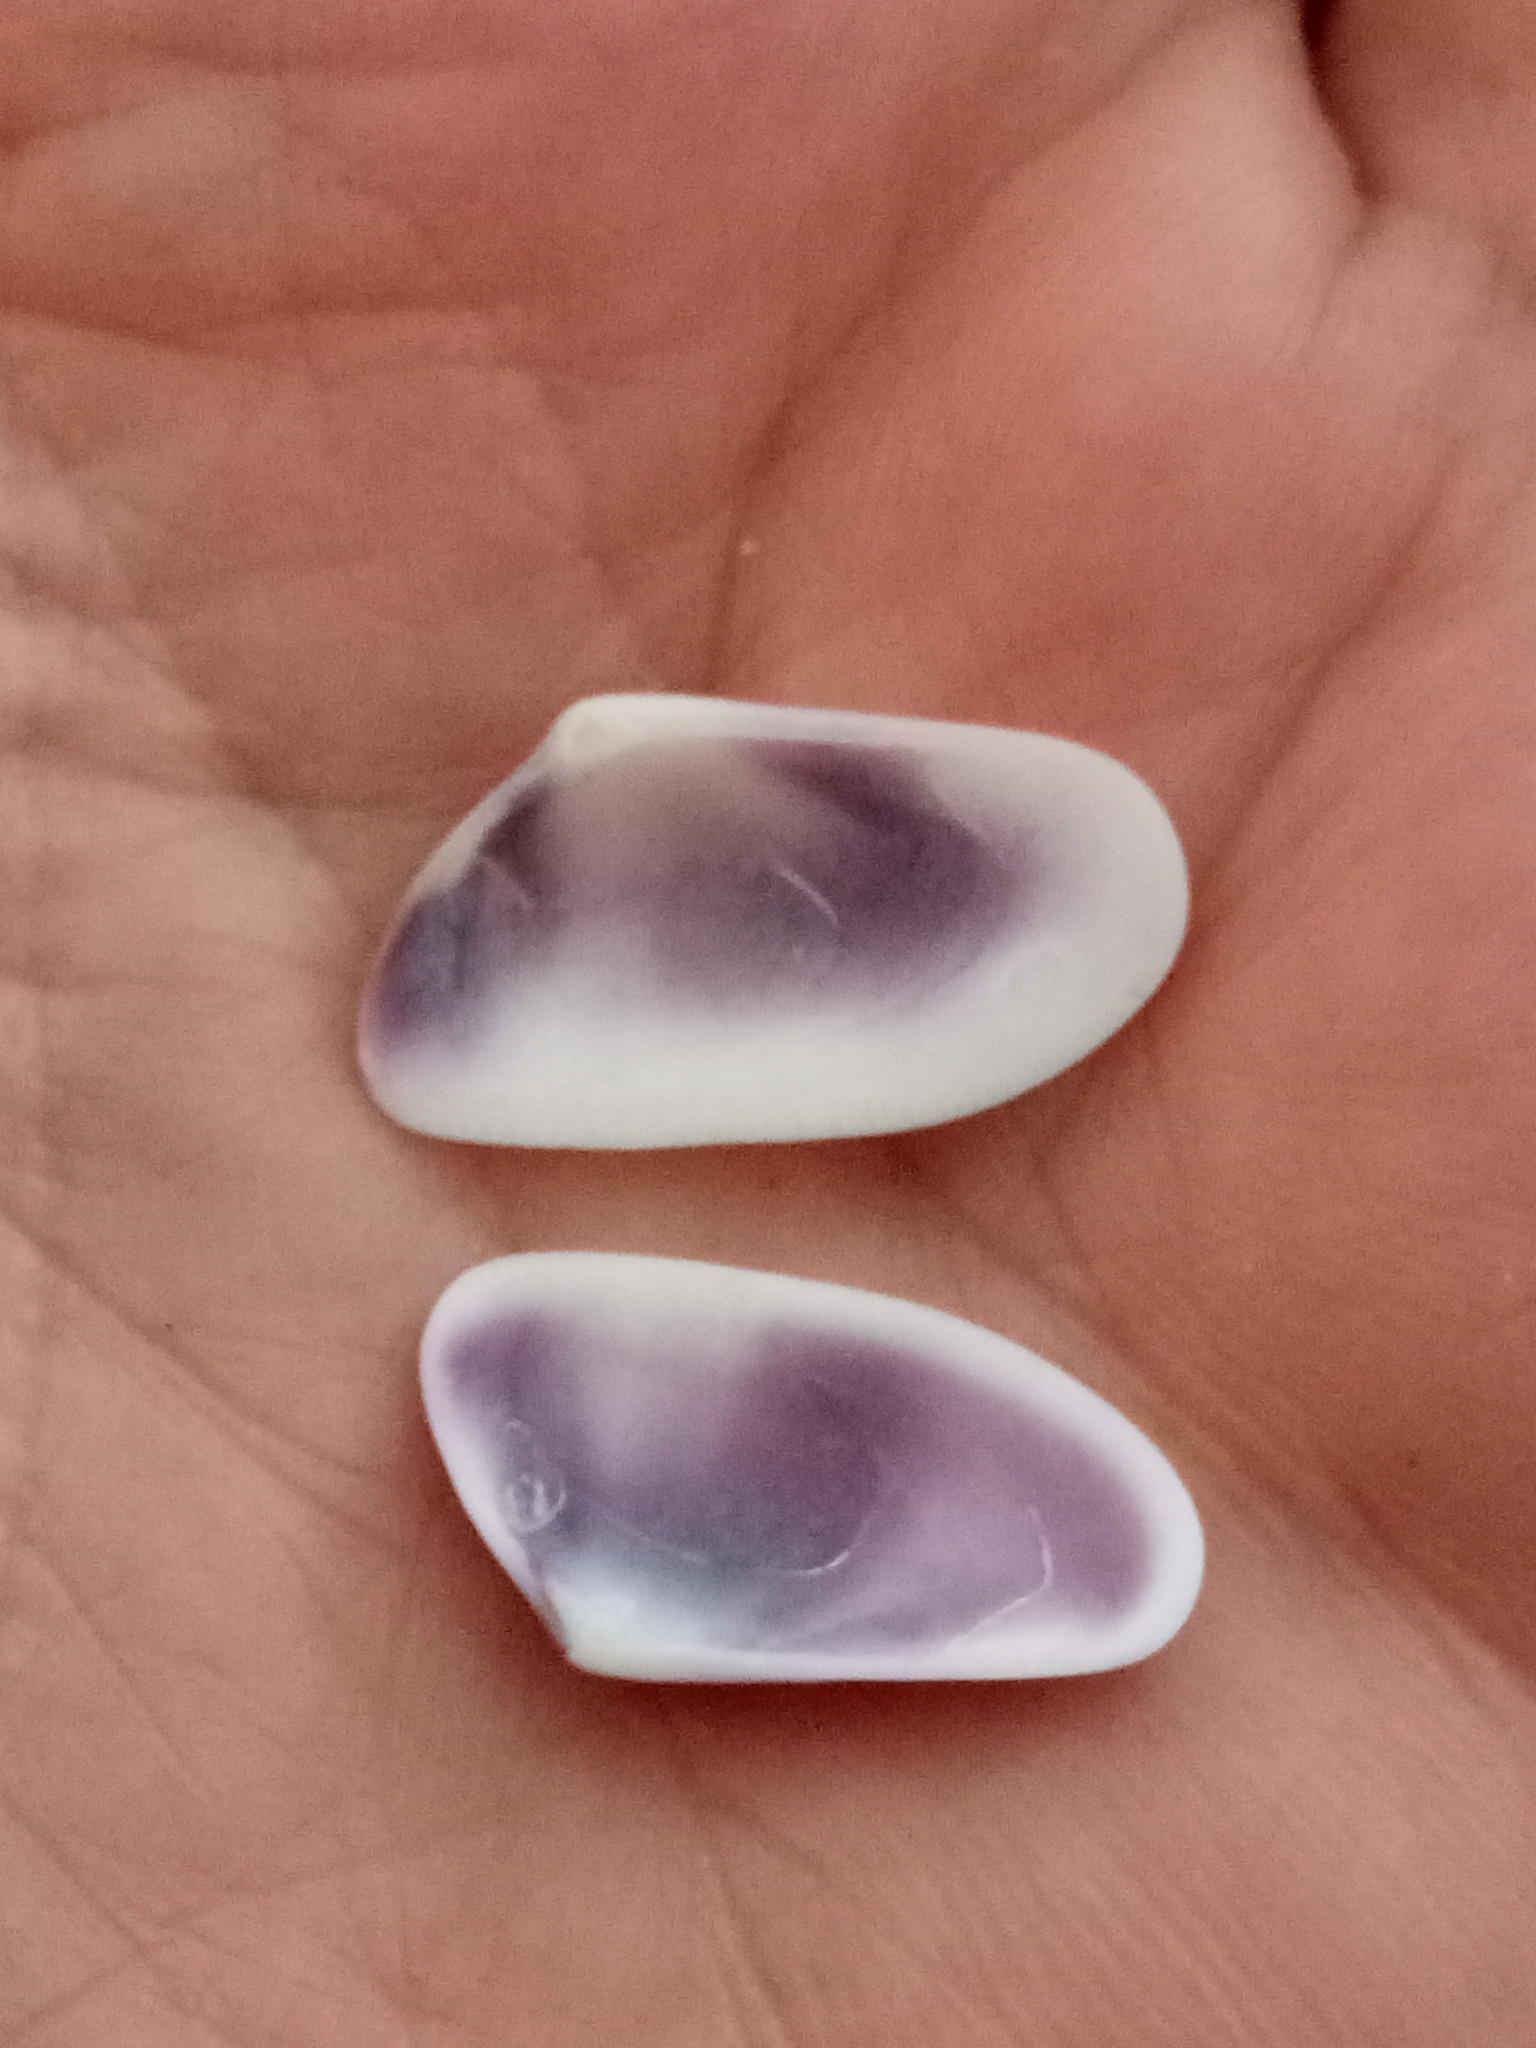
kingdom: Animalia
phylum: Mollusca
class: Bivalvia
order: Cardiida
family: Donacidae
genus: Donax
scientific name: Donax trunculus
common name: Truncate donax
